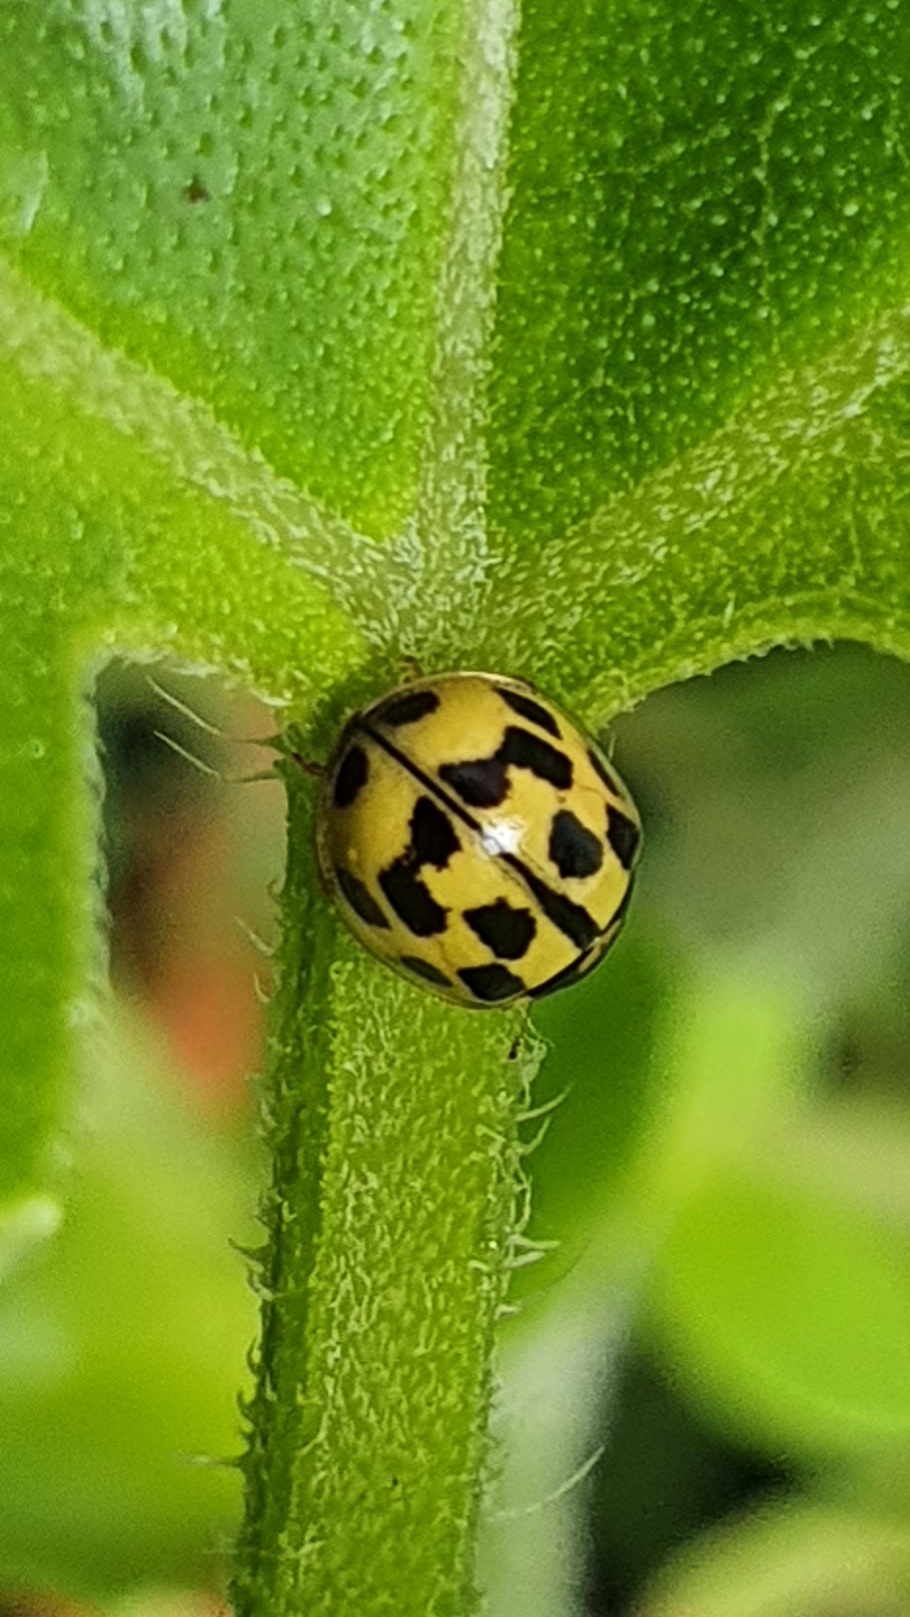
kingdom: Animalia
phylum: Arthropoda
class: Insecta
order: Coleoptera
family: Coccinellidae
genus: Propylaea
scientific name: Propylaea quatuordecimpunctata
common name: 14-spotted ladybird beetle
